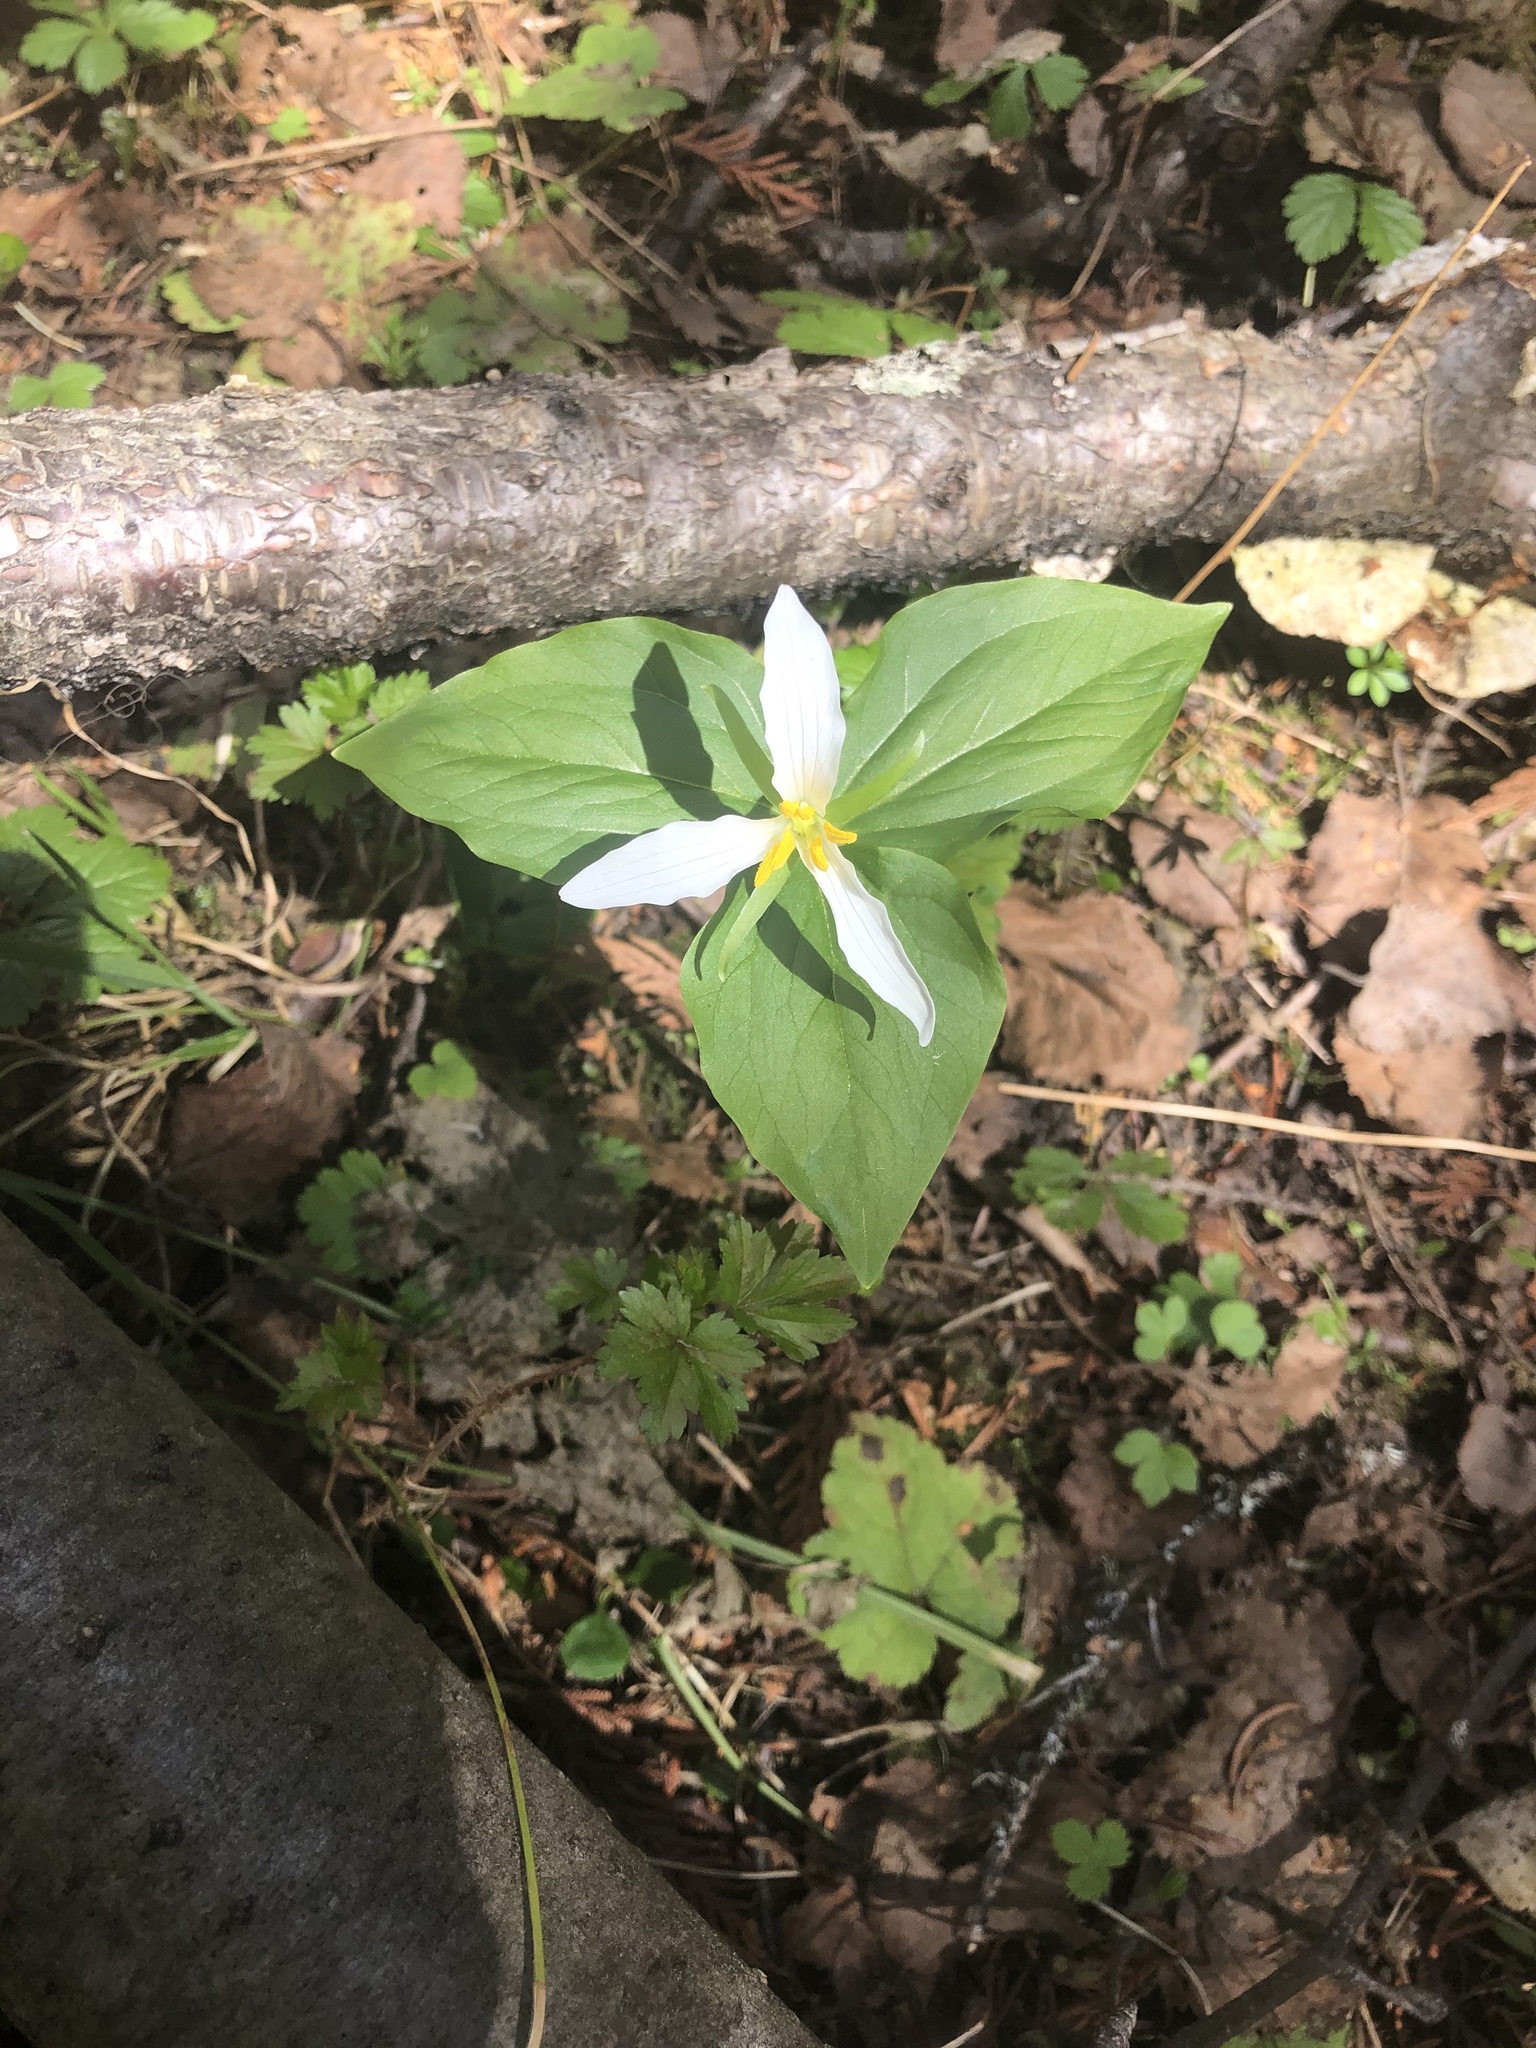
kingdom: Plantae
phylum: Tracheophyta
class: Liliopsida
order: Liliales
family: Melanthiaceae
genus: Trillium
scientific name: Trillium ovatum
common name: Pacific trillium
